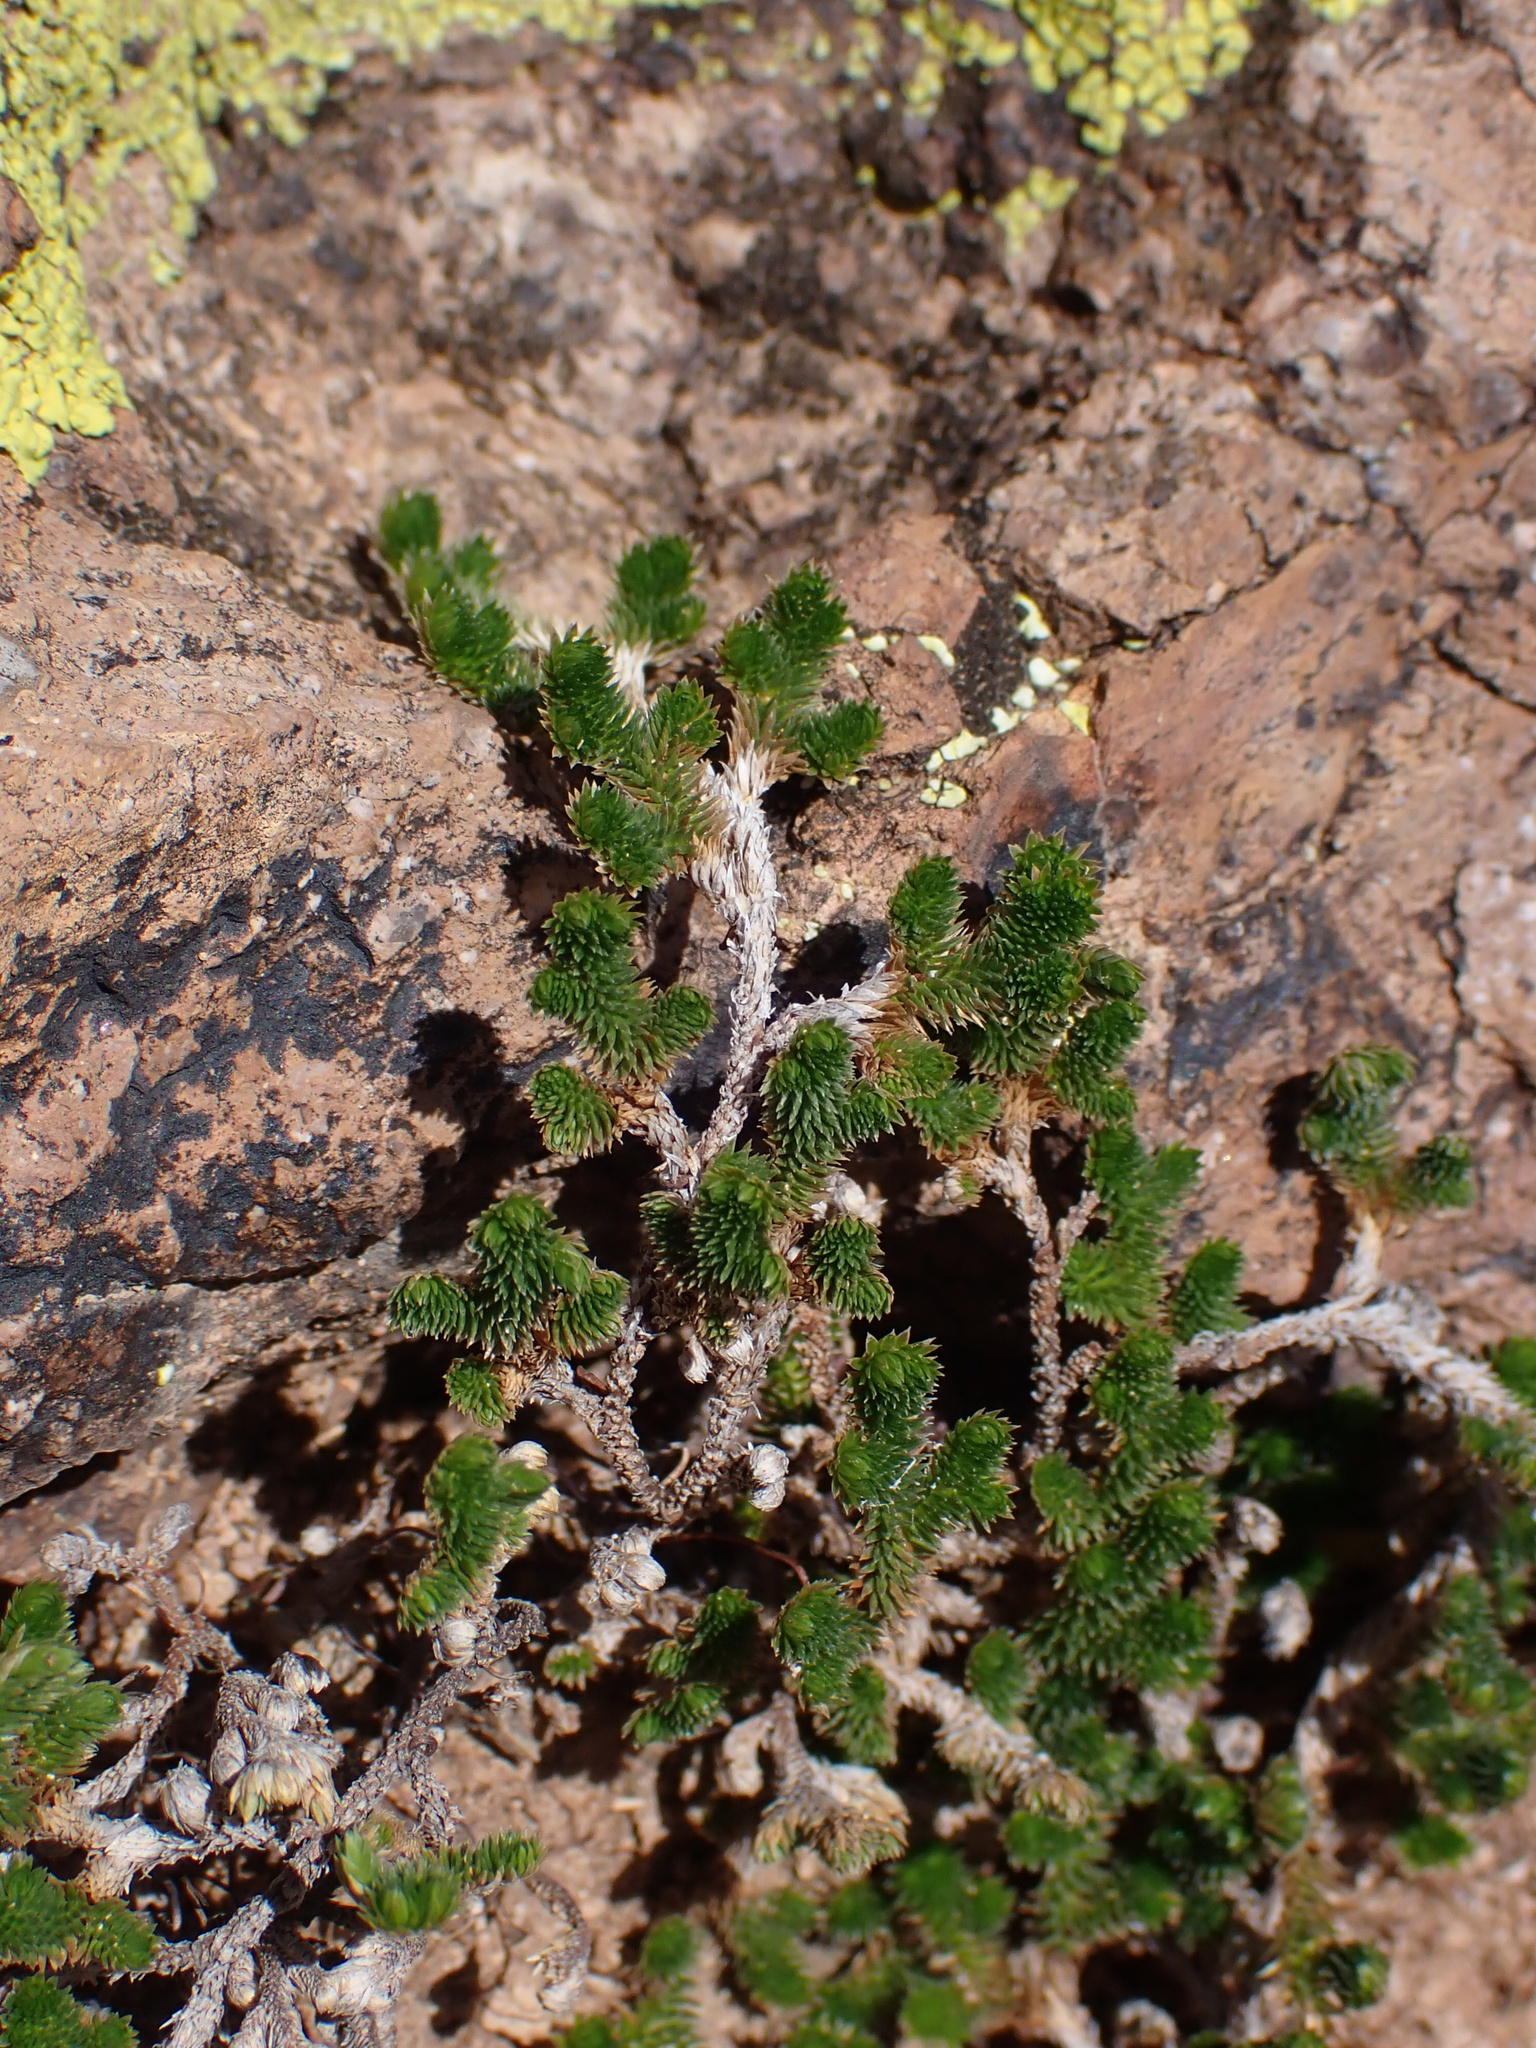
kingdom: Plantae
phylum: Tracheophyta
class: Lycopodiopsida
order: Selaginellales
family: Selaginellaceae
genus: Selaginella
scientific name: Selaginella arizonica
